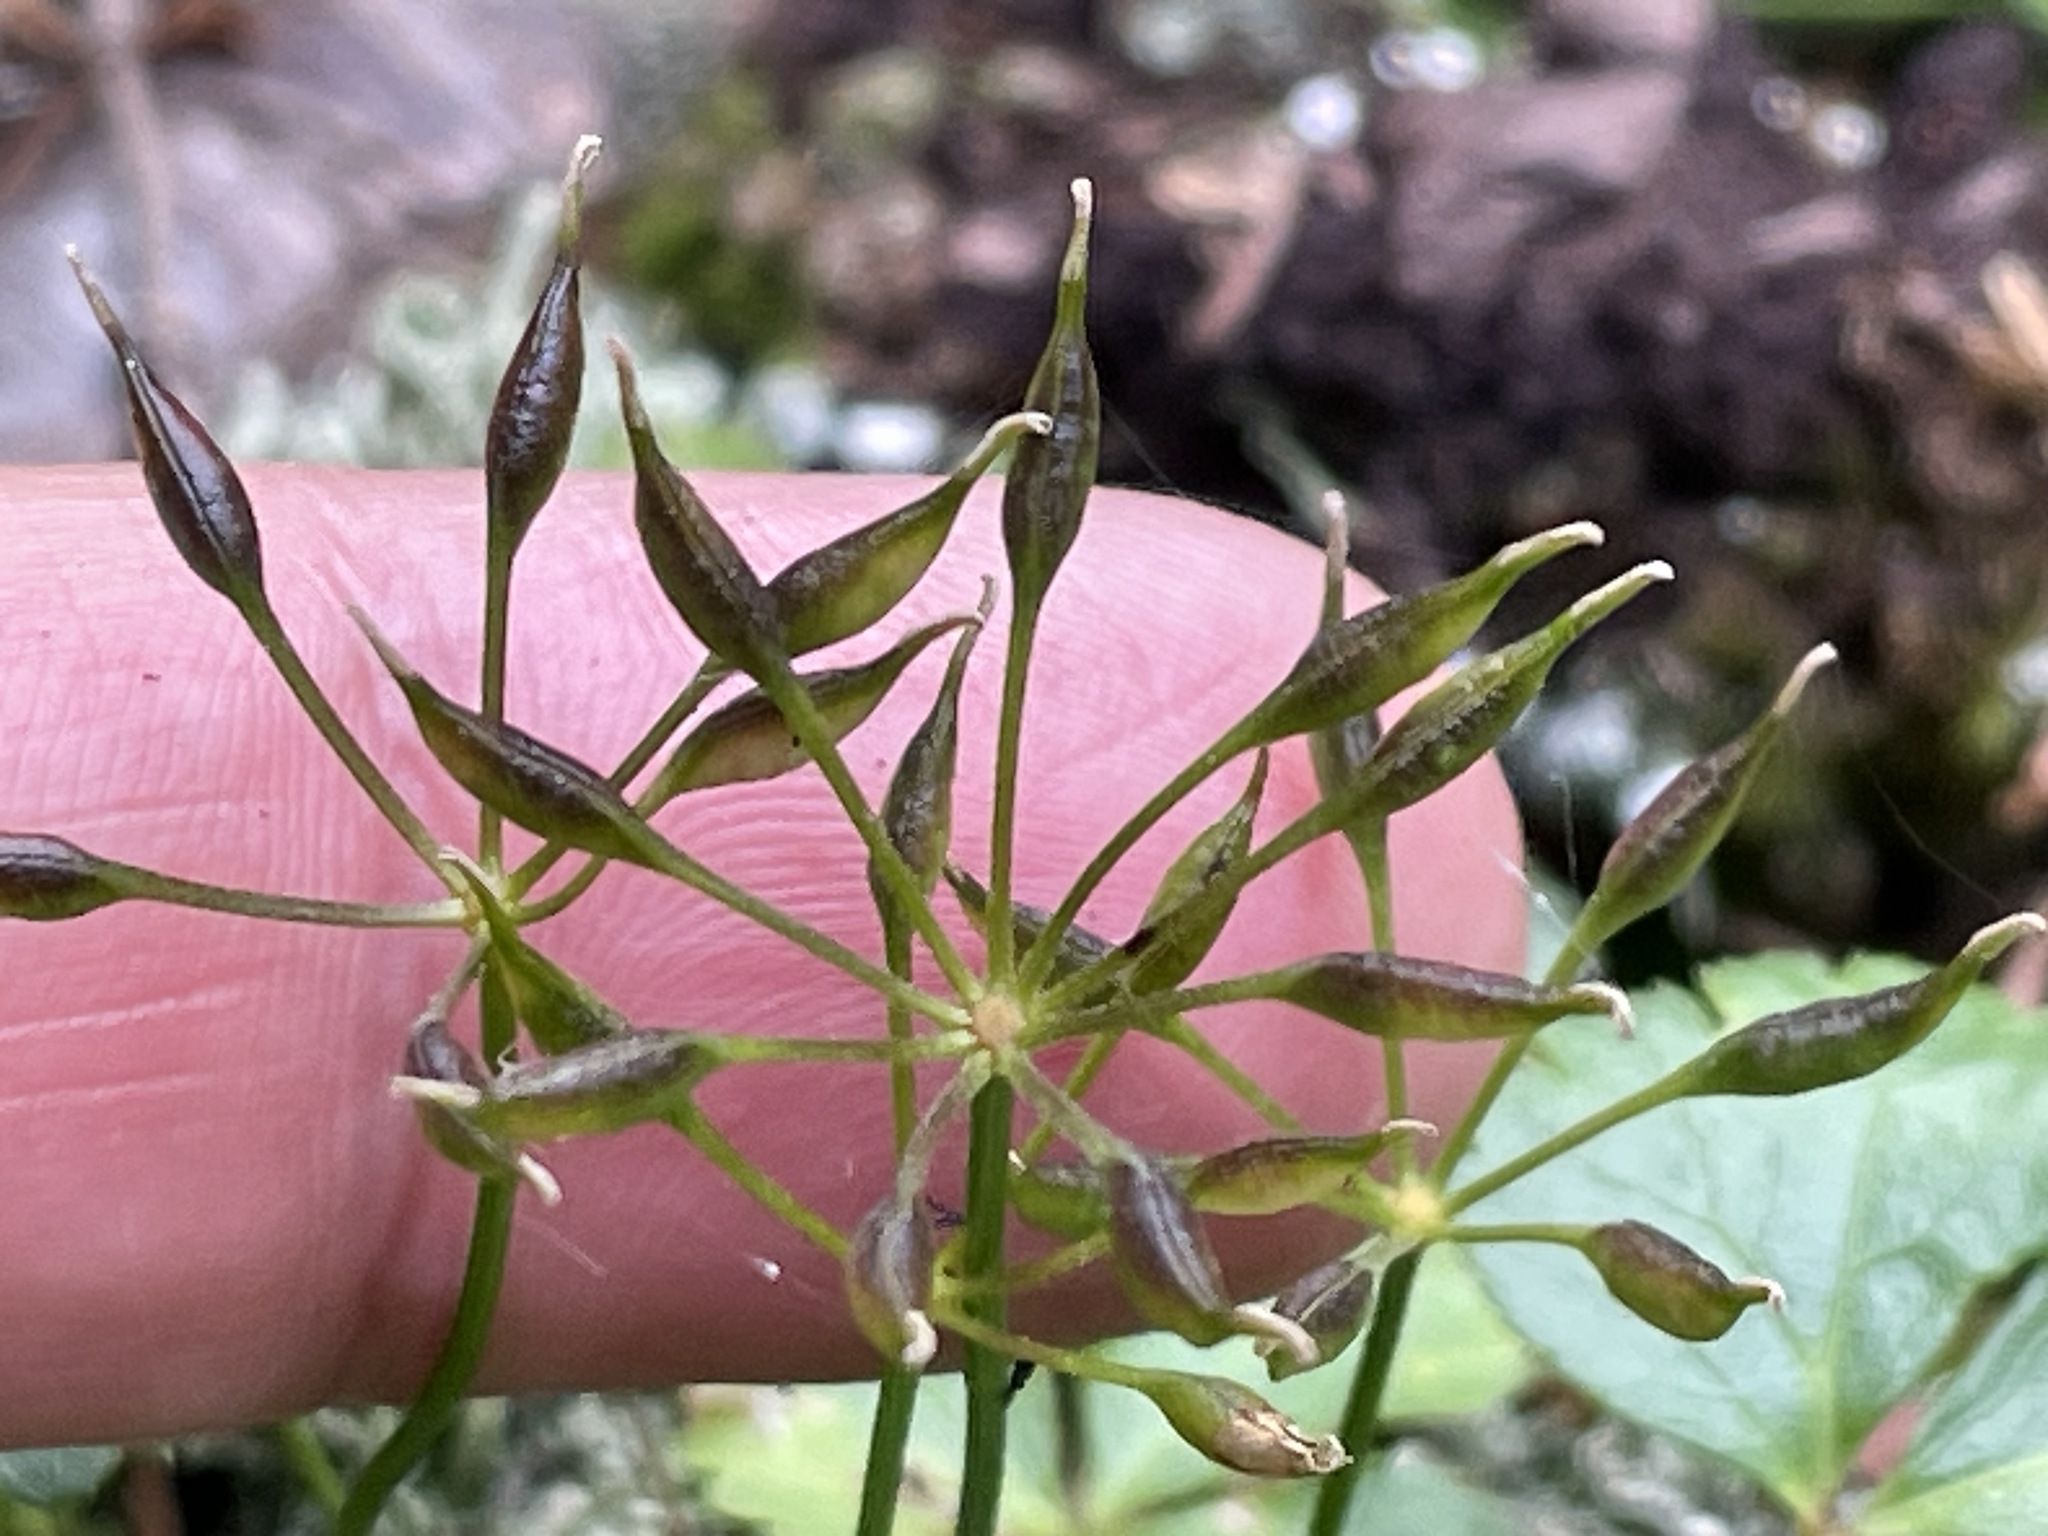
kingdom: Plantae
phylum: Tracheophyta
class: Magnoliopsida
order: Ranunculales
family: Ranunculaceae
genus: Coptis
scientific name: Coptis trifolia
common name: Canker-root
